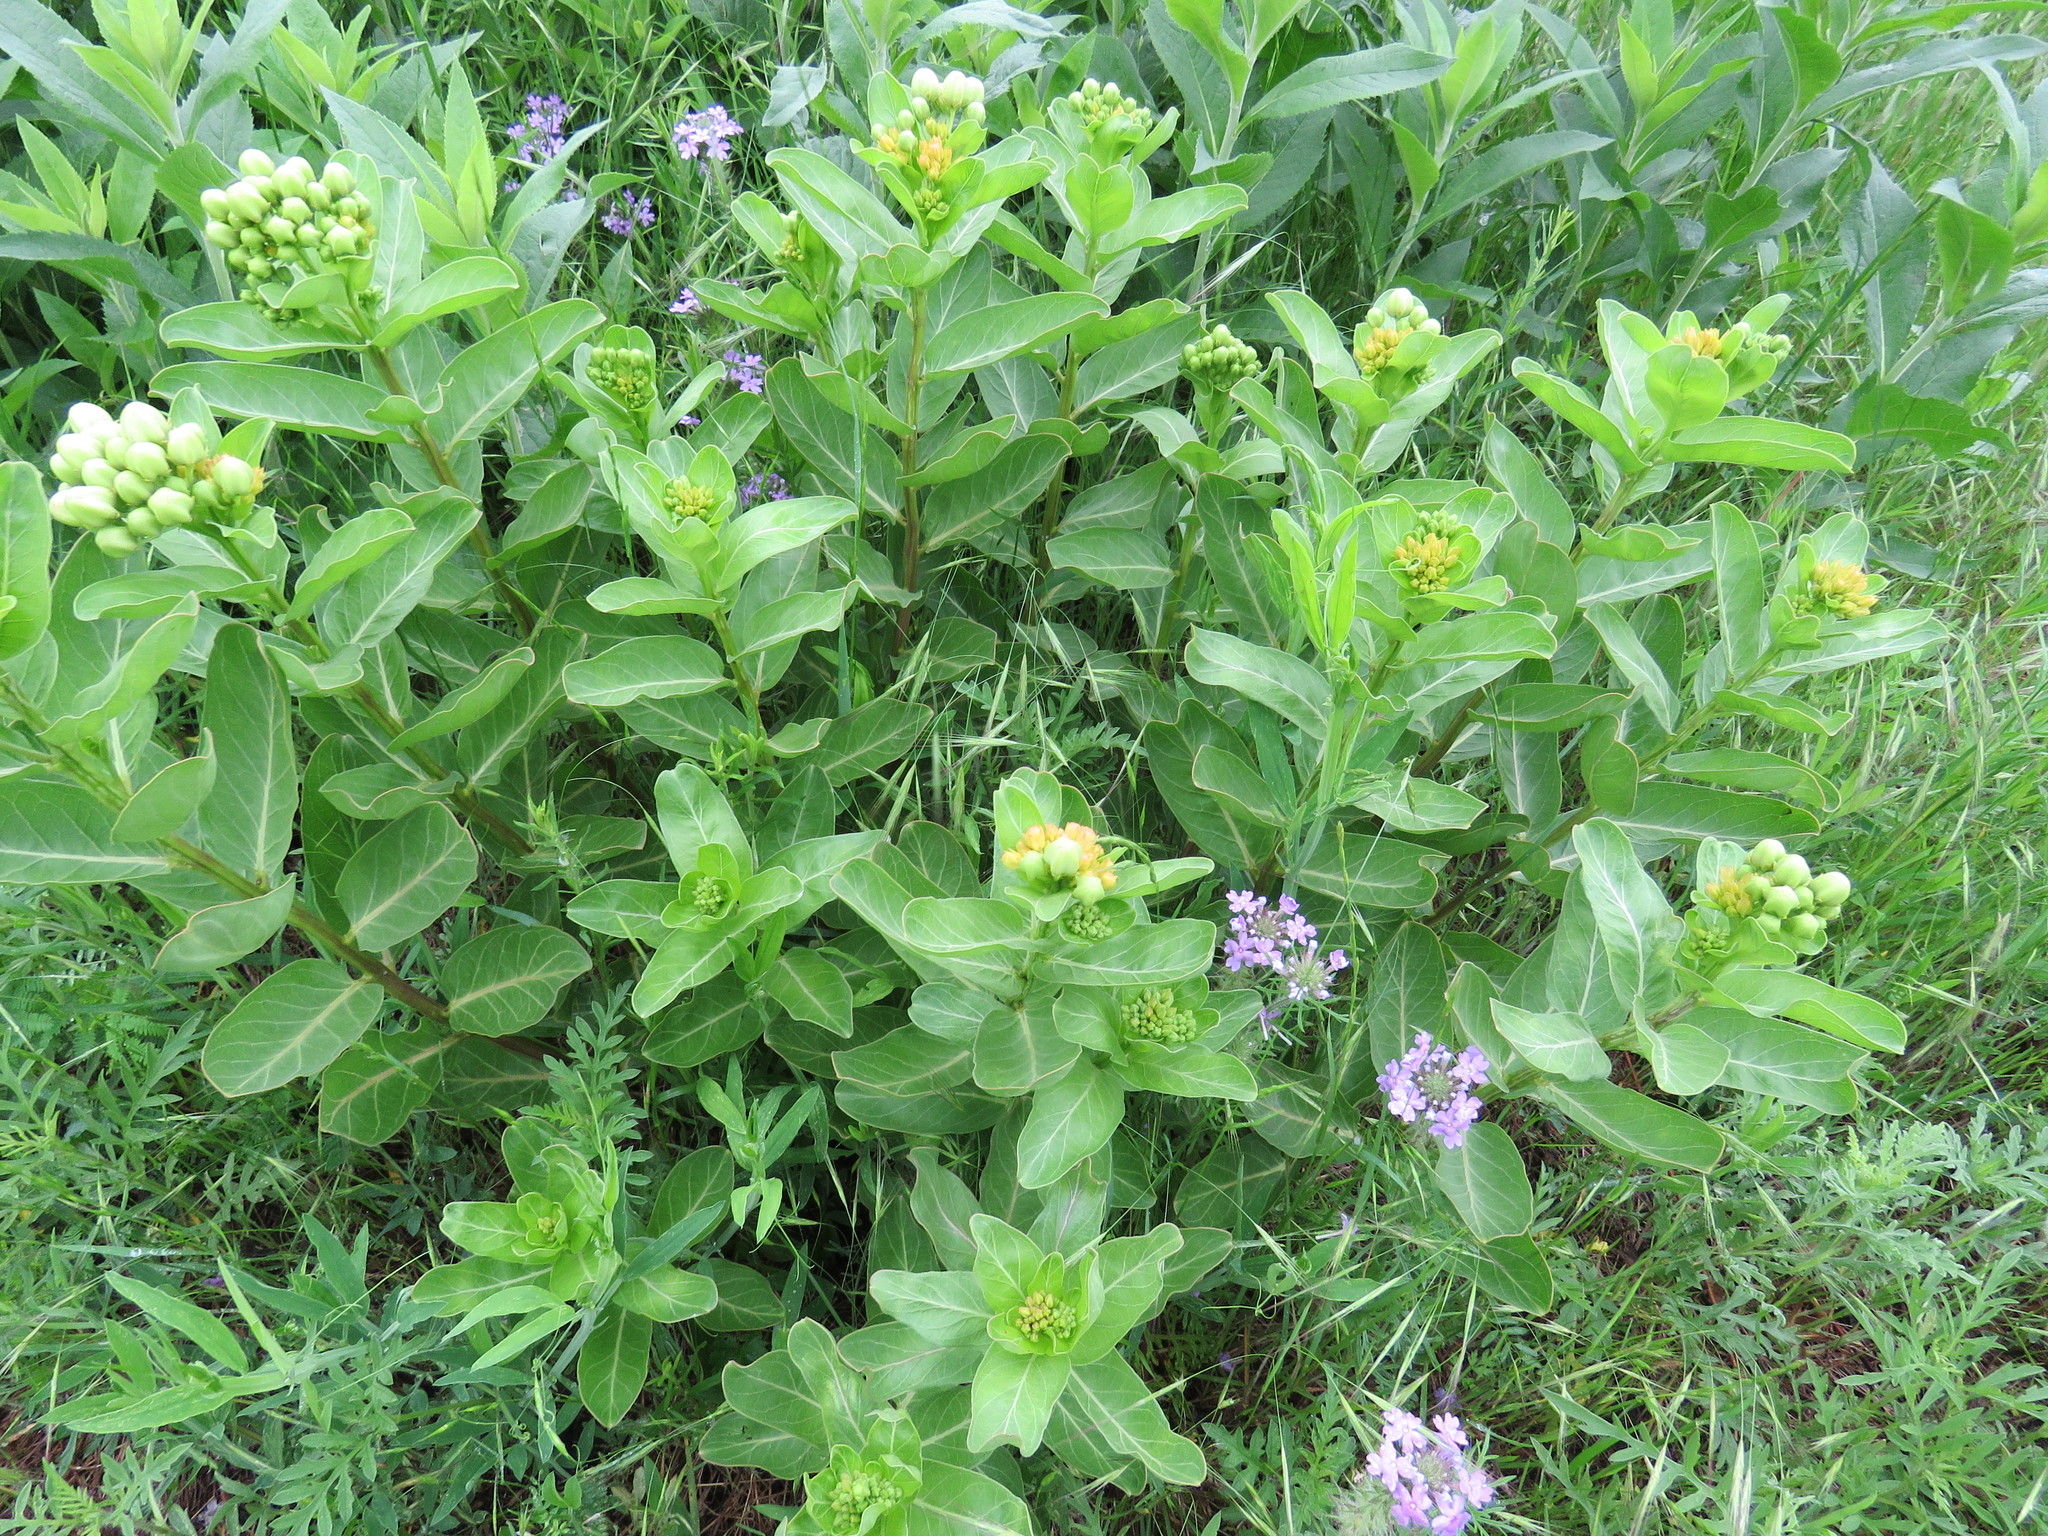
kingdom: Plantae
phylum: Tracheophyta
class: Magnoliopsida
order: Gentianales
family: Apocynaceae
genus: Asclepias
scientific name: Asclepias viridis
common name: Antelope-horns
